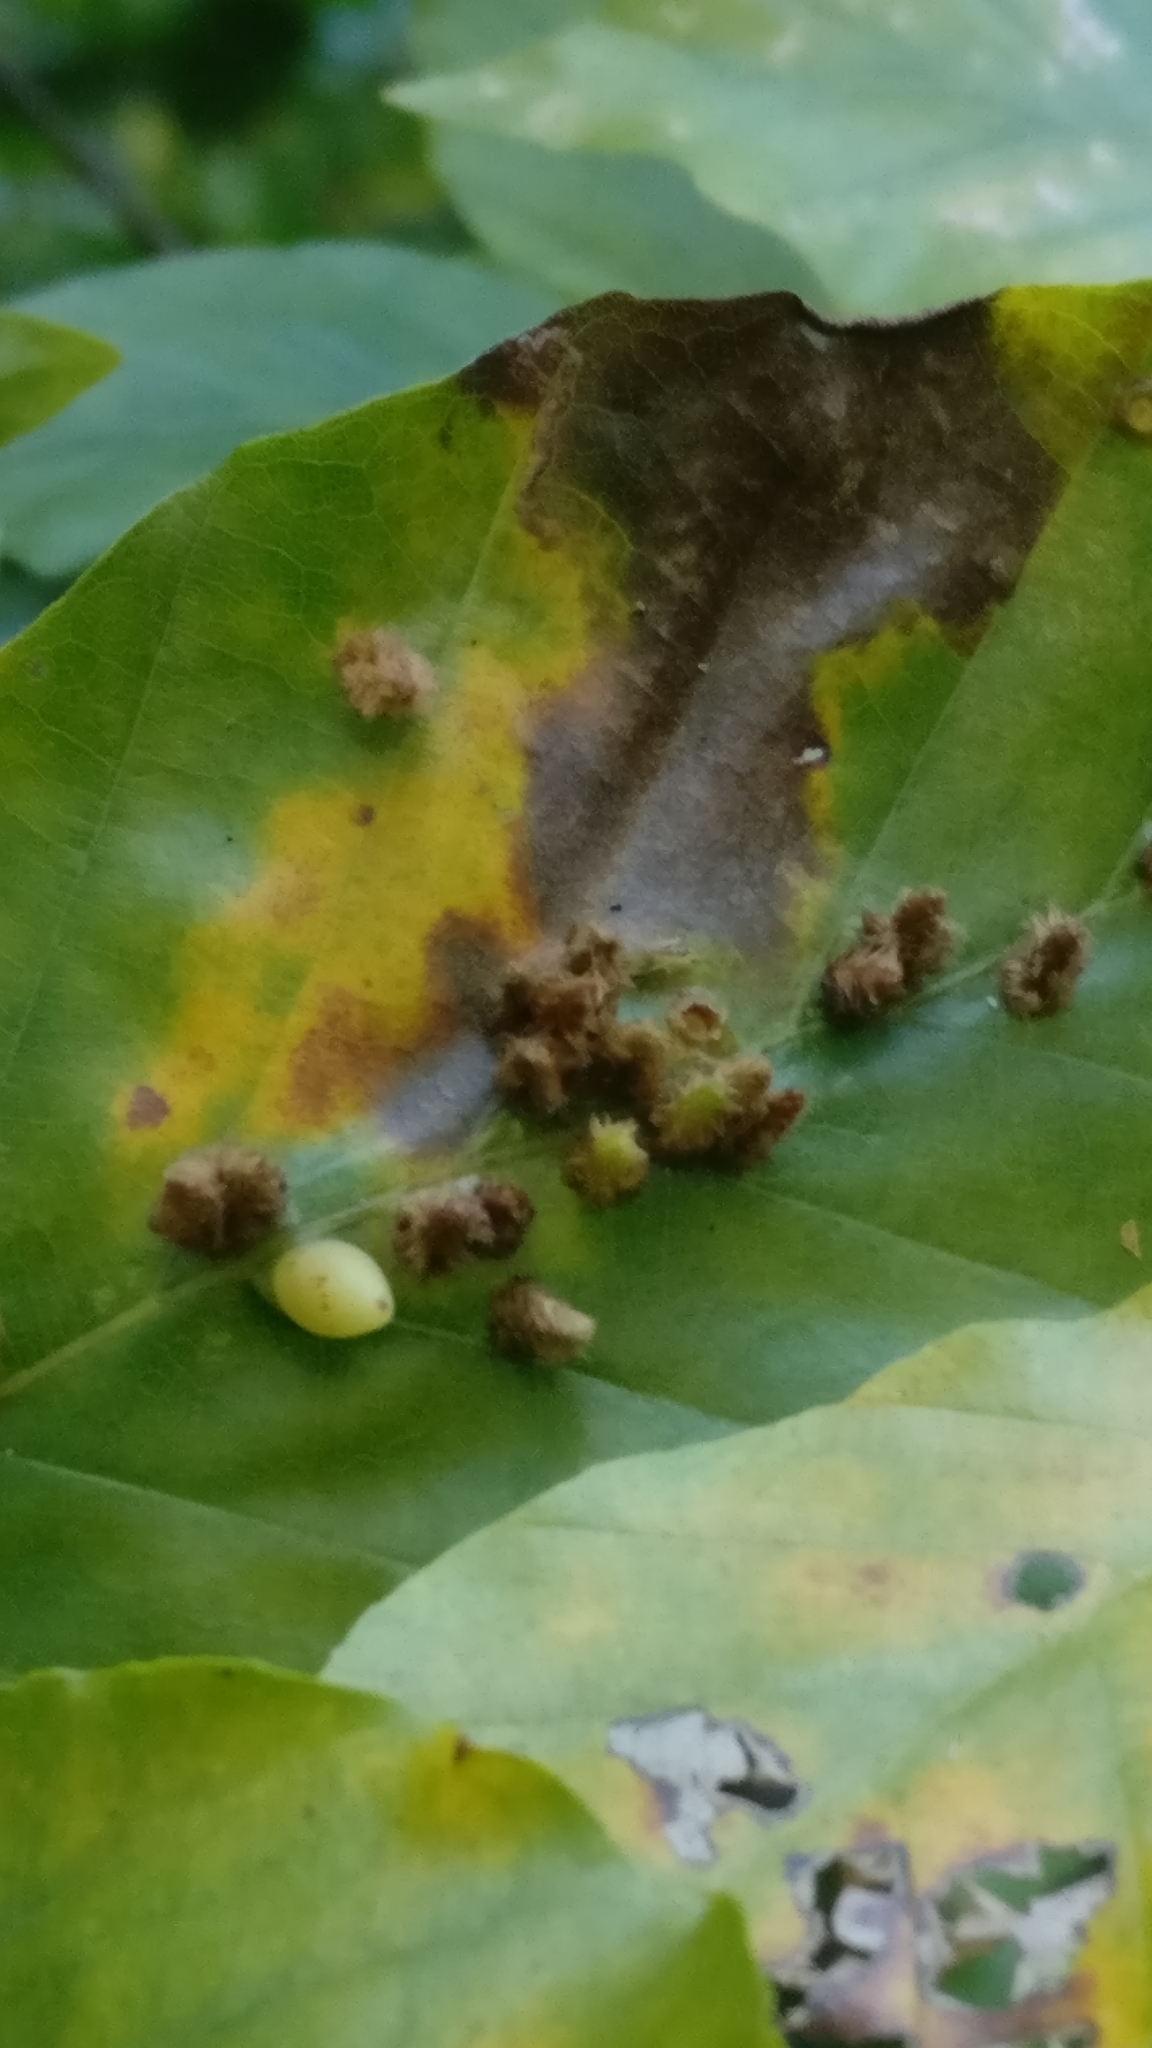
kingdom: Animalia
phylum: Arthropoda
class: Insecta
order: Diptera
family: Cecidomyiidae
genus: Hartigiola
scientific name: Hartigiola annulipes
